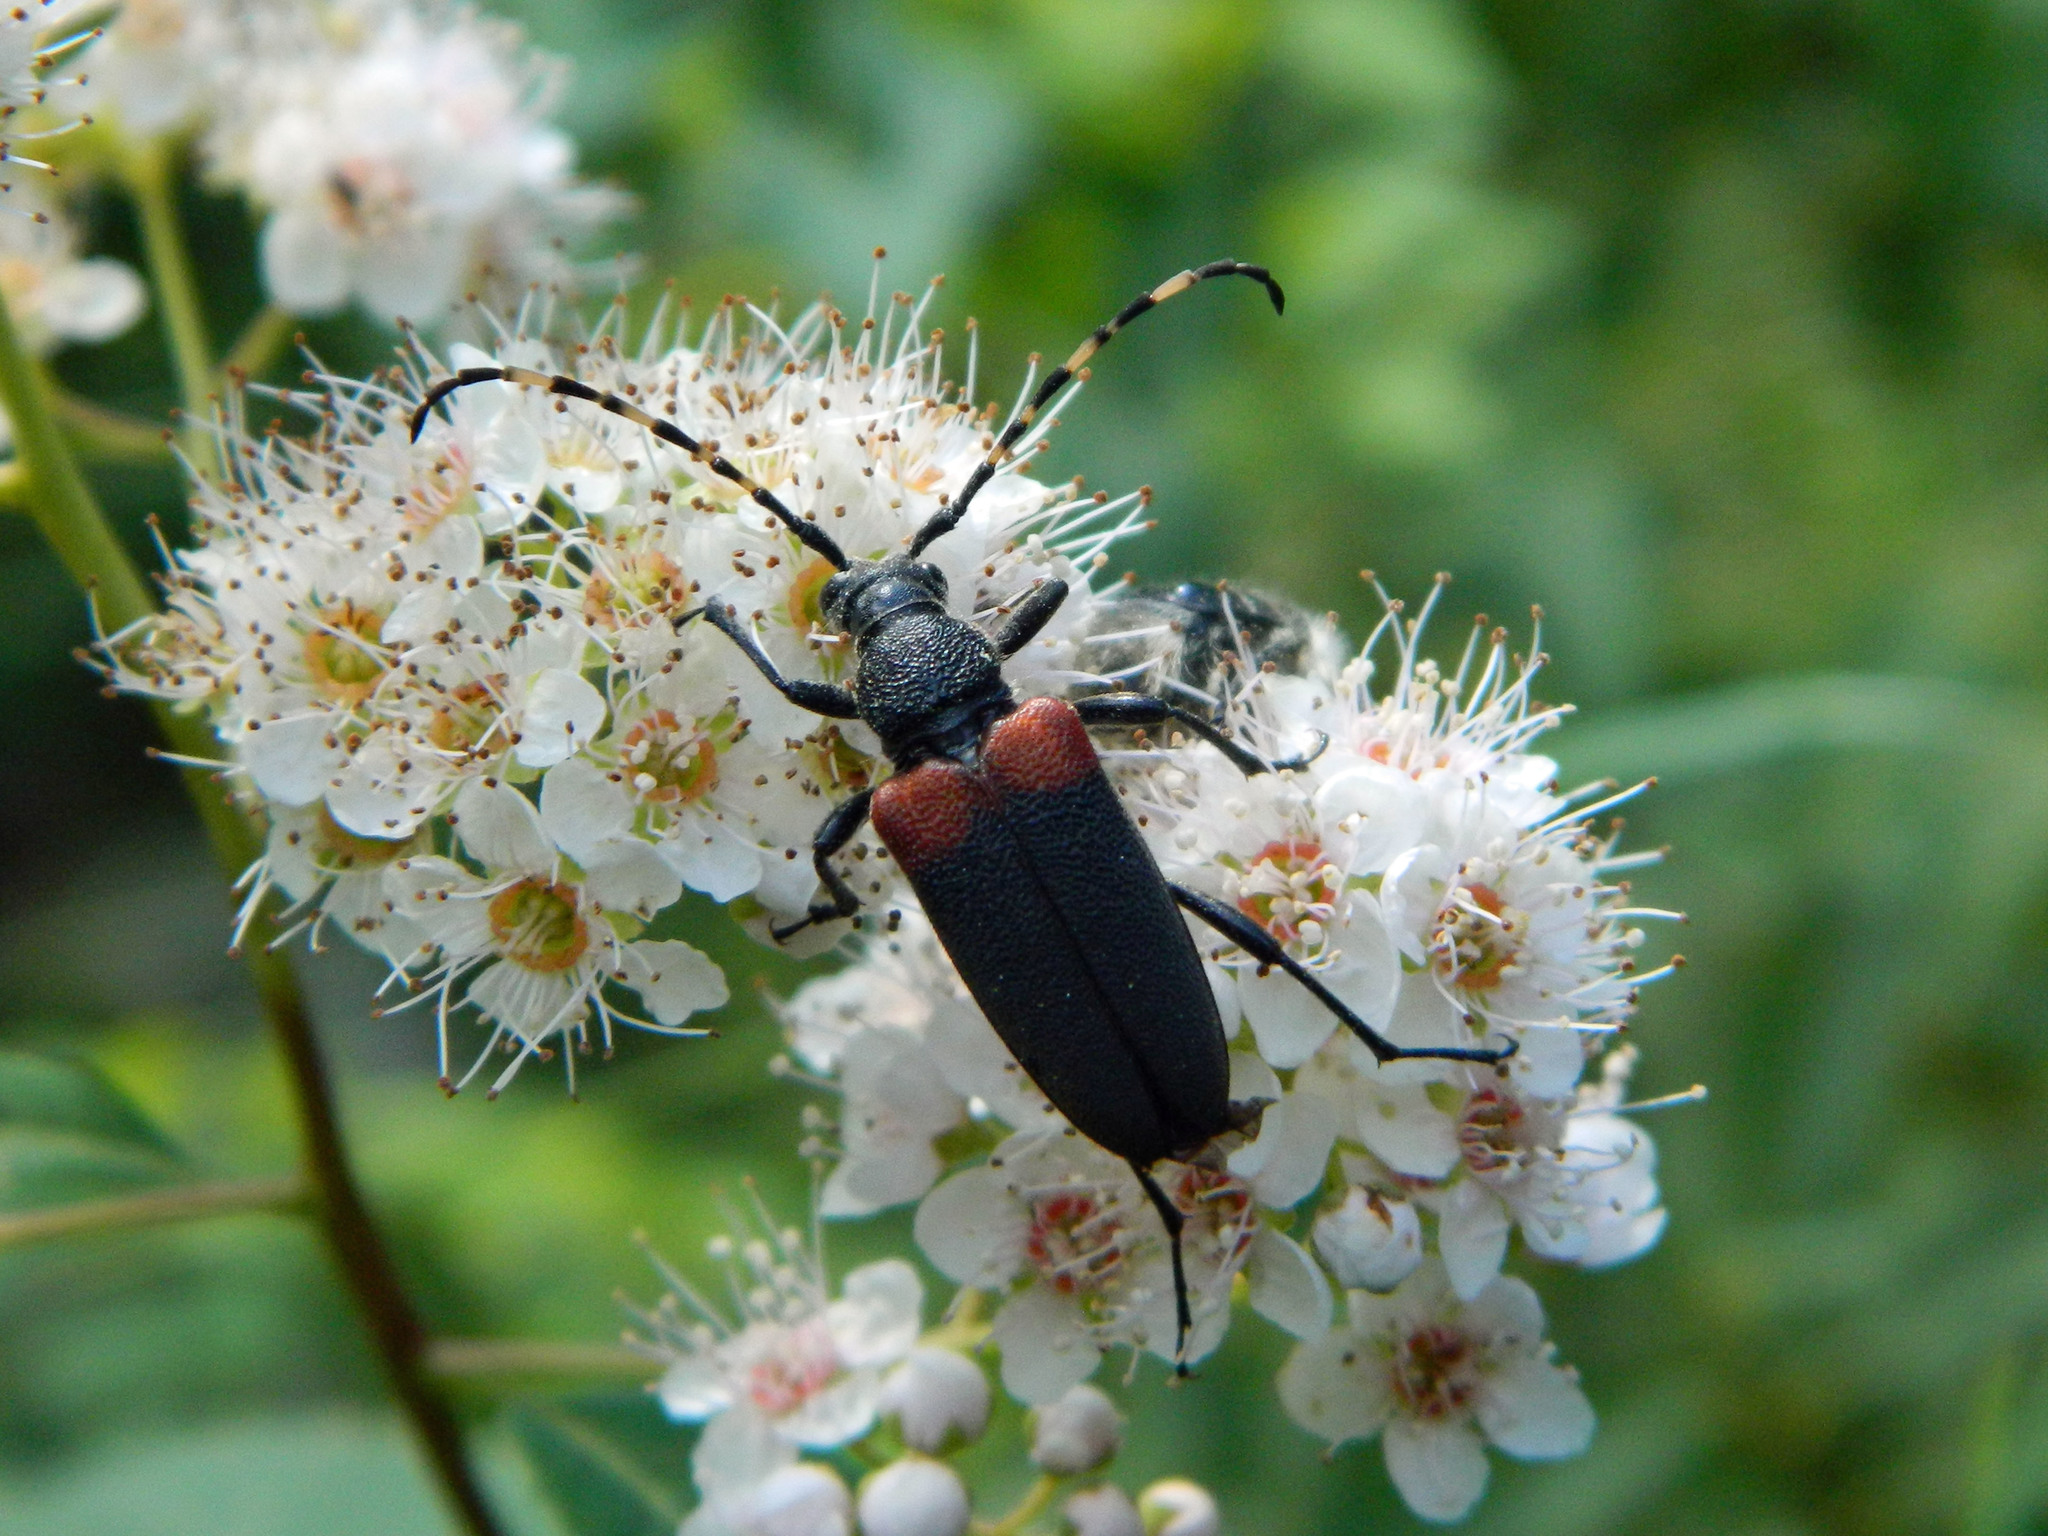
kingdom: Animalia
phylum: Arthropoda
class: Insecta
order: Coleoptera
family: Cerambycidae
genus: Stictoleptura
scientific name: Stictoleptura canadensis
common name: Red-shouldered pine borer
